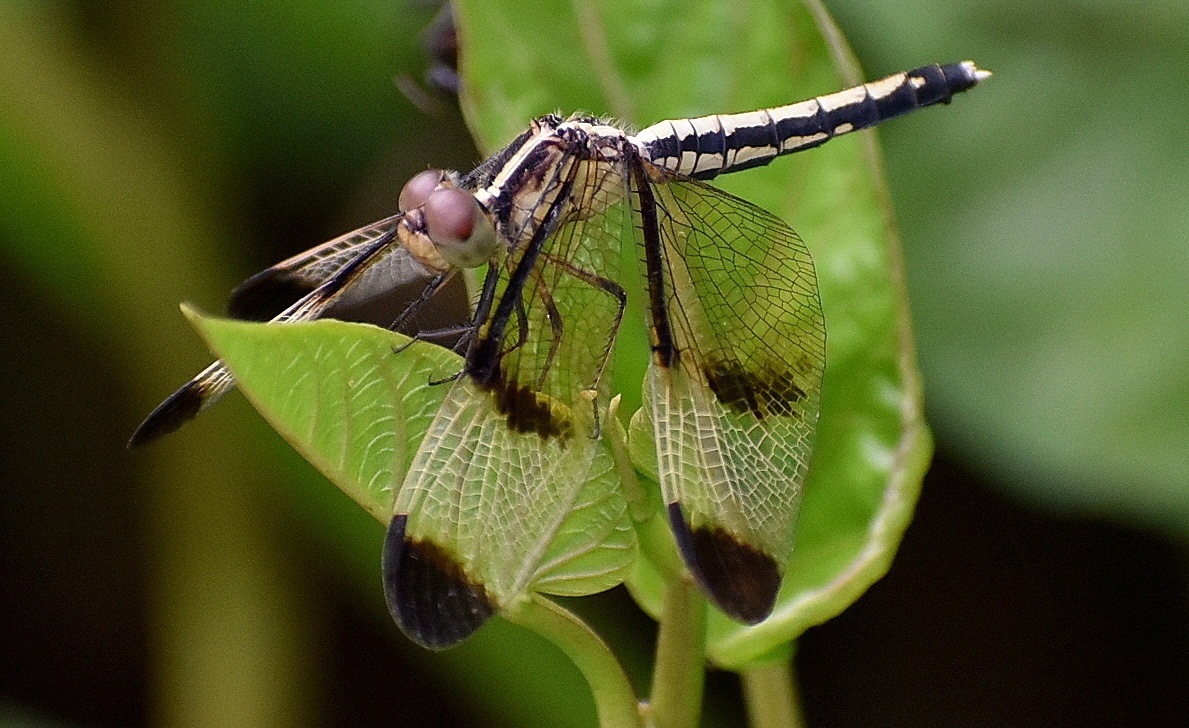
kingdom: Animalia
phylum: Arthropoda
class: Insecta
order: Odonata
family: Libellulidae
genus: Neurothemis
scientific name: Neurothemis tullia
